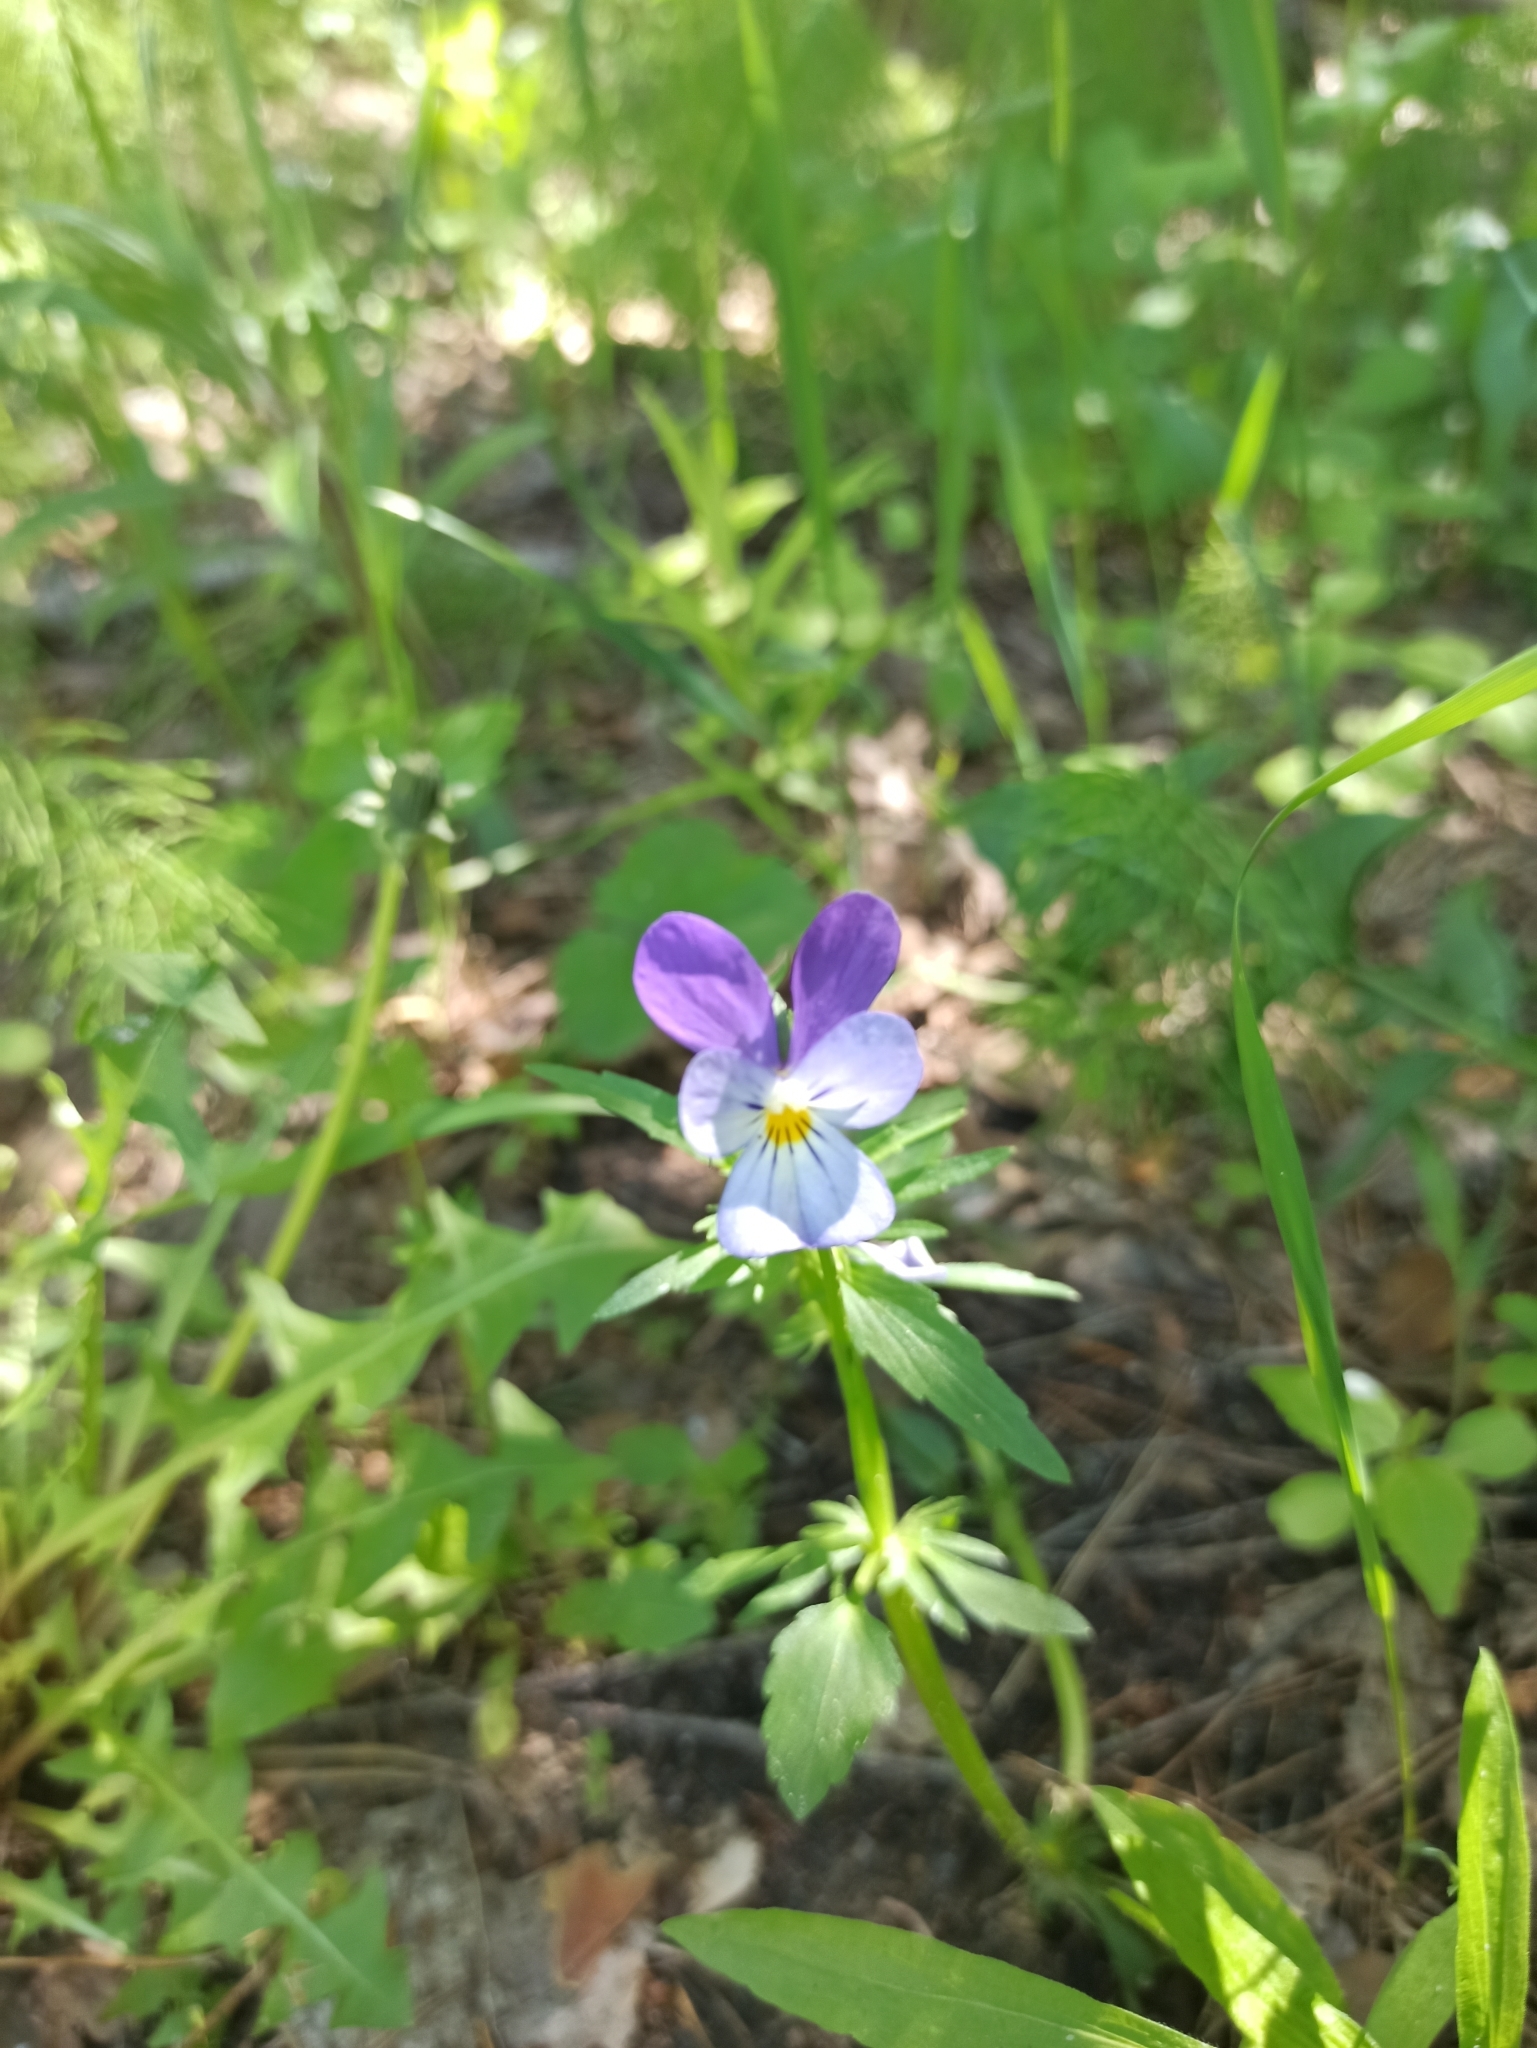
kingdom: Plantae
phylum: Tracheophyta
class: Magnoliopsida
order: Malpighiales
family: Violaceae
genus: Viola
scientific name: Viola tricolor
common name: Pansy
